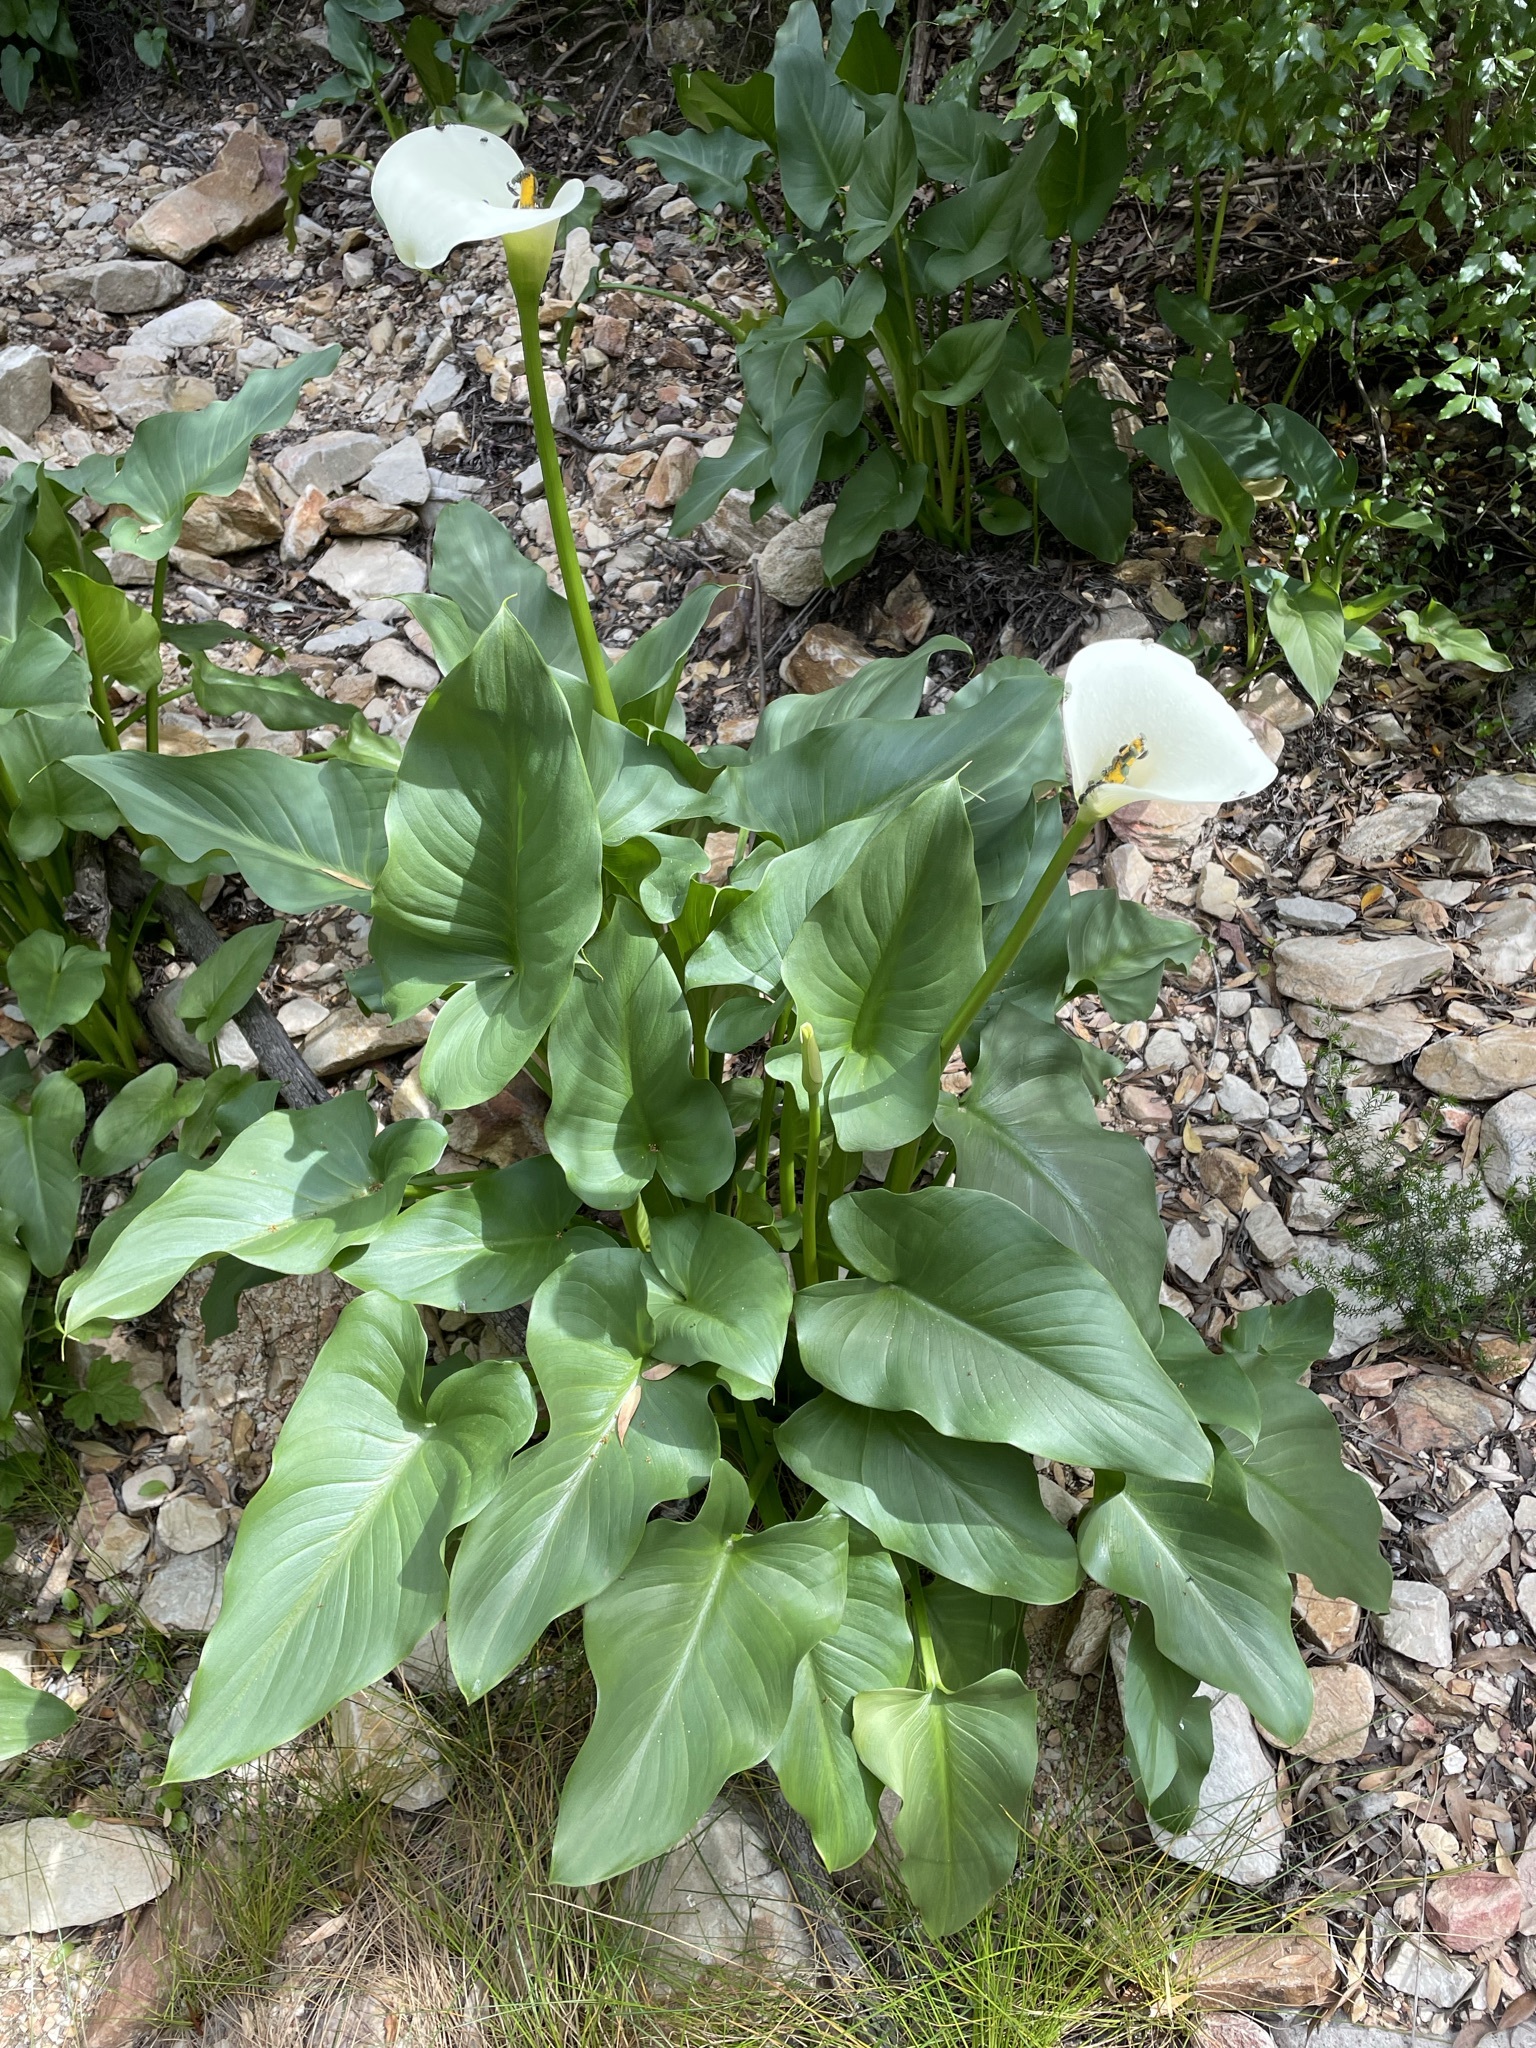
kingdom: Plantae
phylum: Tracheophyta
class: Liliopsida
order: Alismatales
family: Araceae
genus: Zantedeschia
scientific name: Zantedeschia aethiopica
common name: Altar-lily
